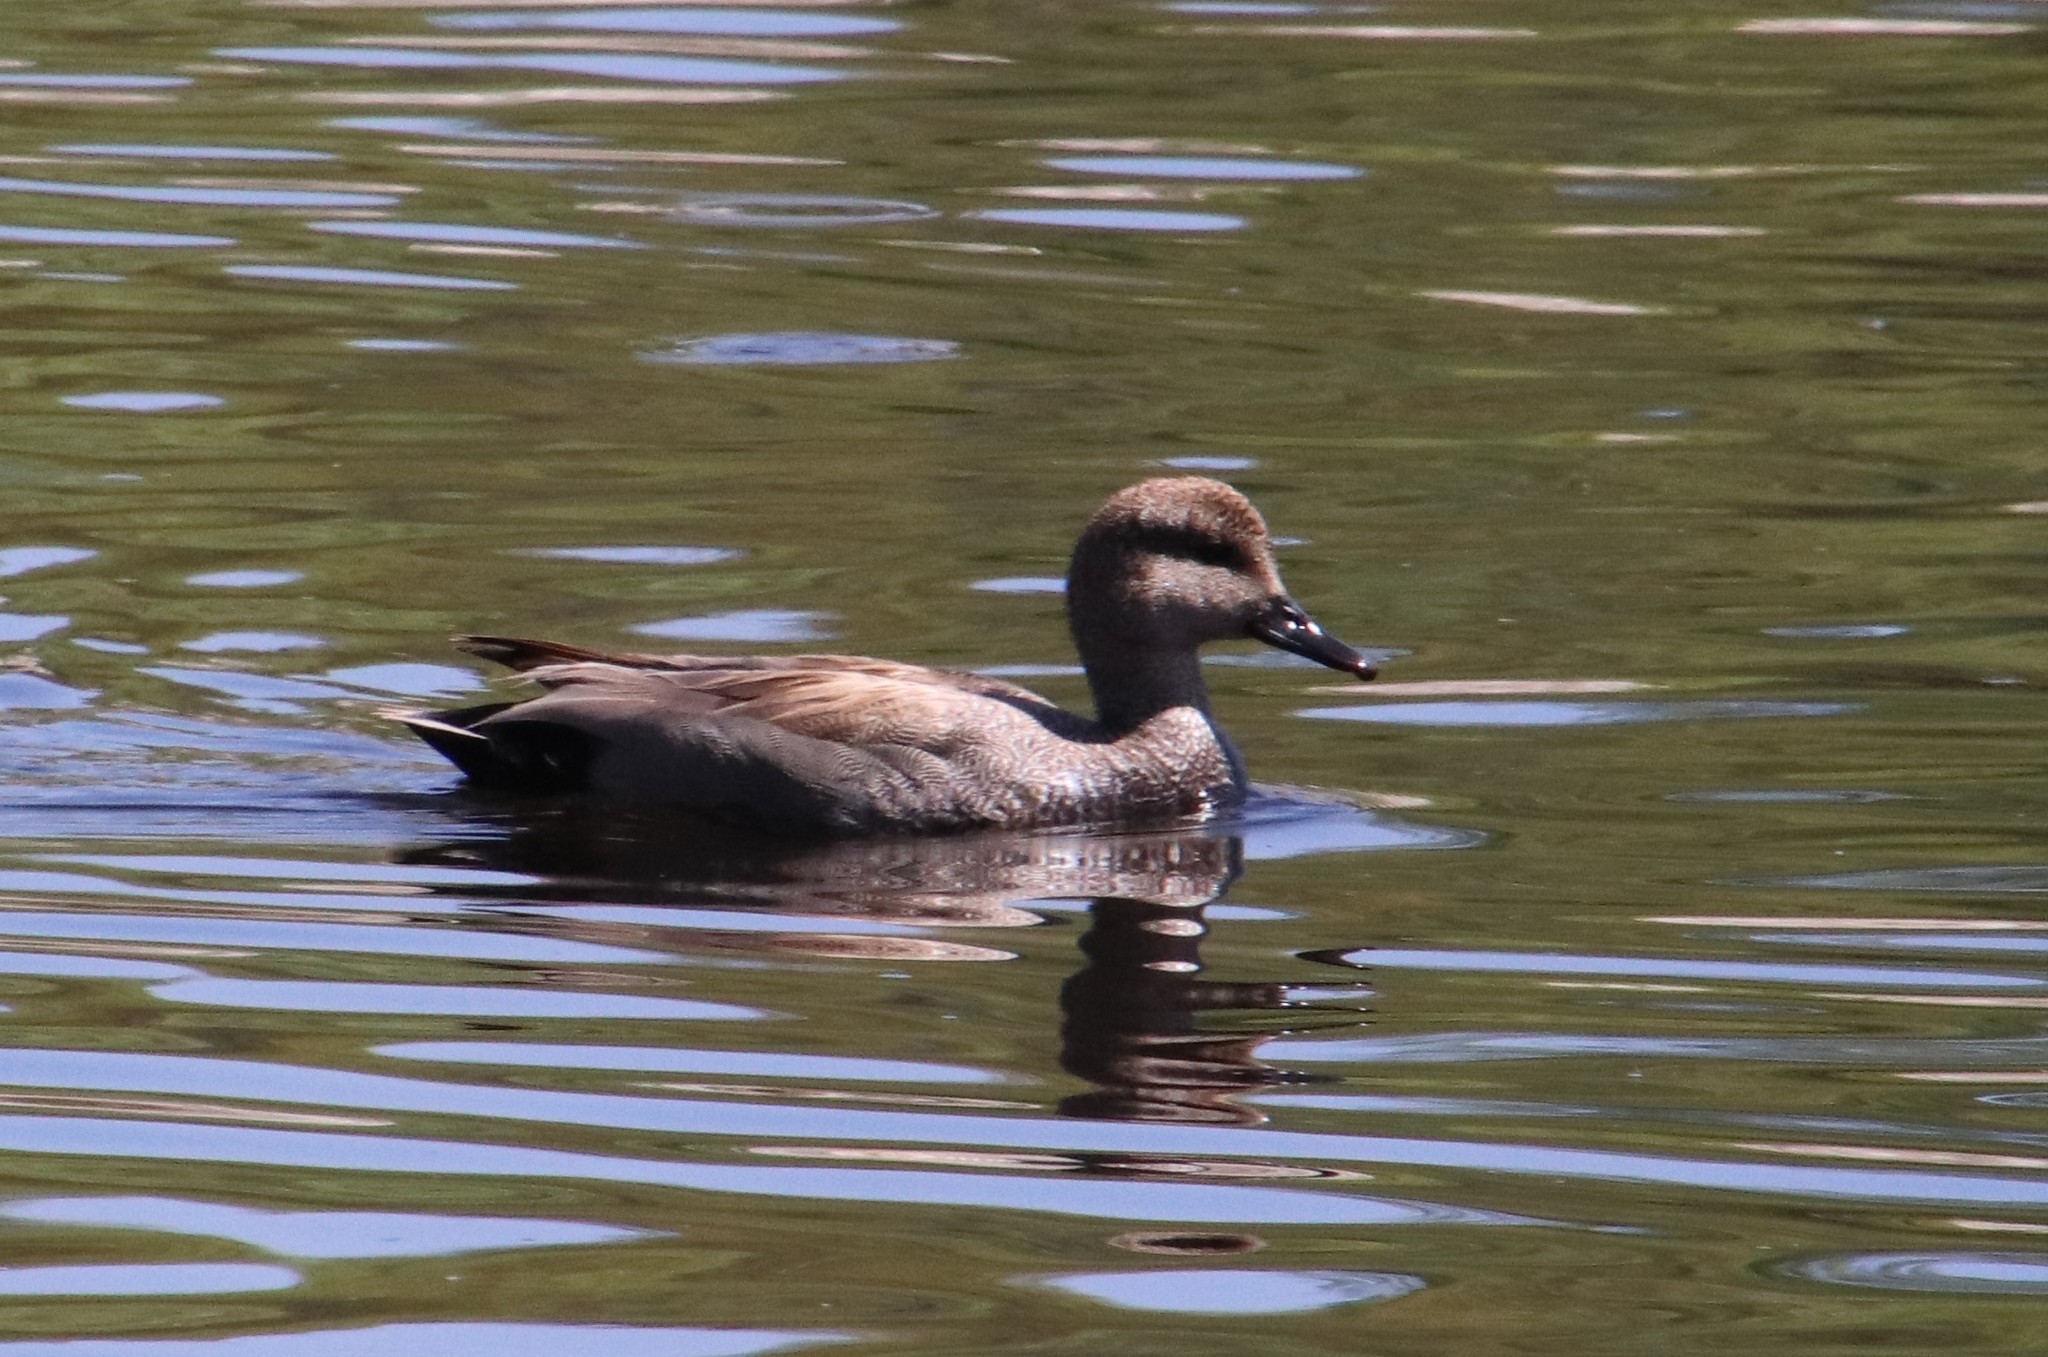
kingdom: Animalia
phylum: Chordata
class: Aves
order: Anseriformes
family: Anatidae
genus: Mareca
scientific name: Mareca strepera
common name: Gadwall
